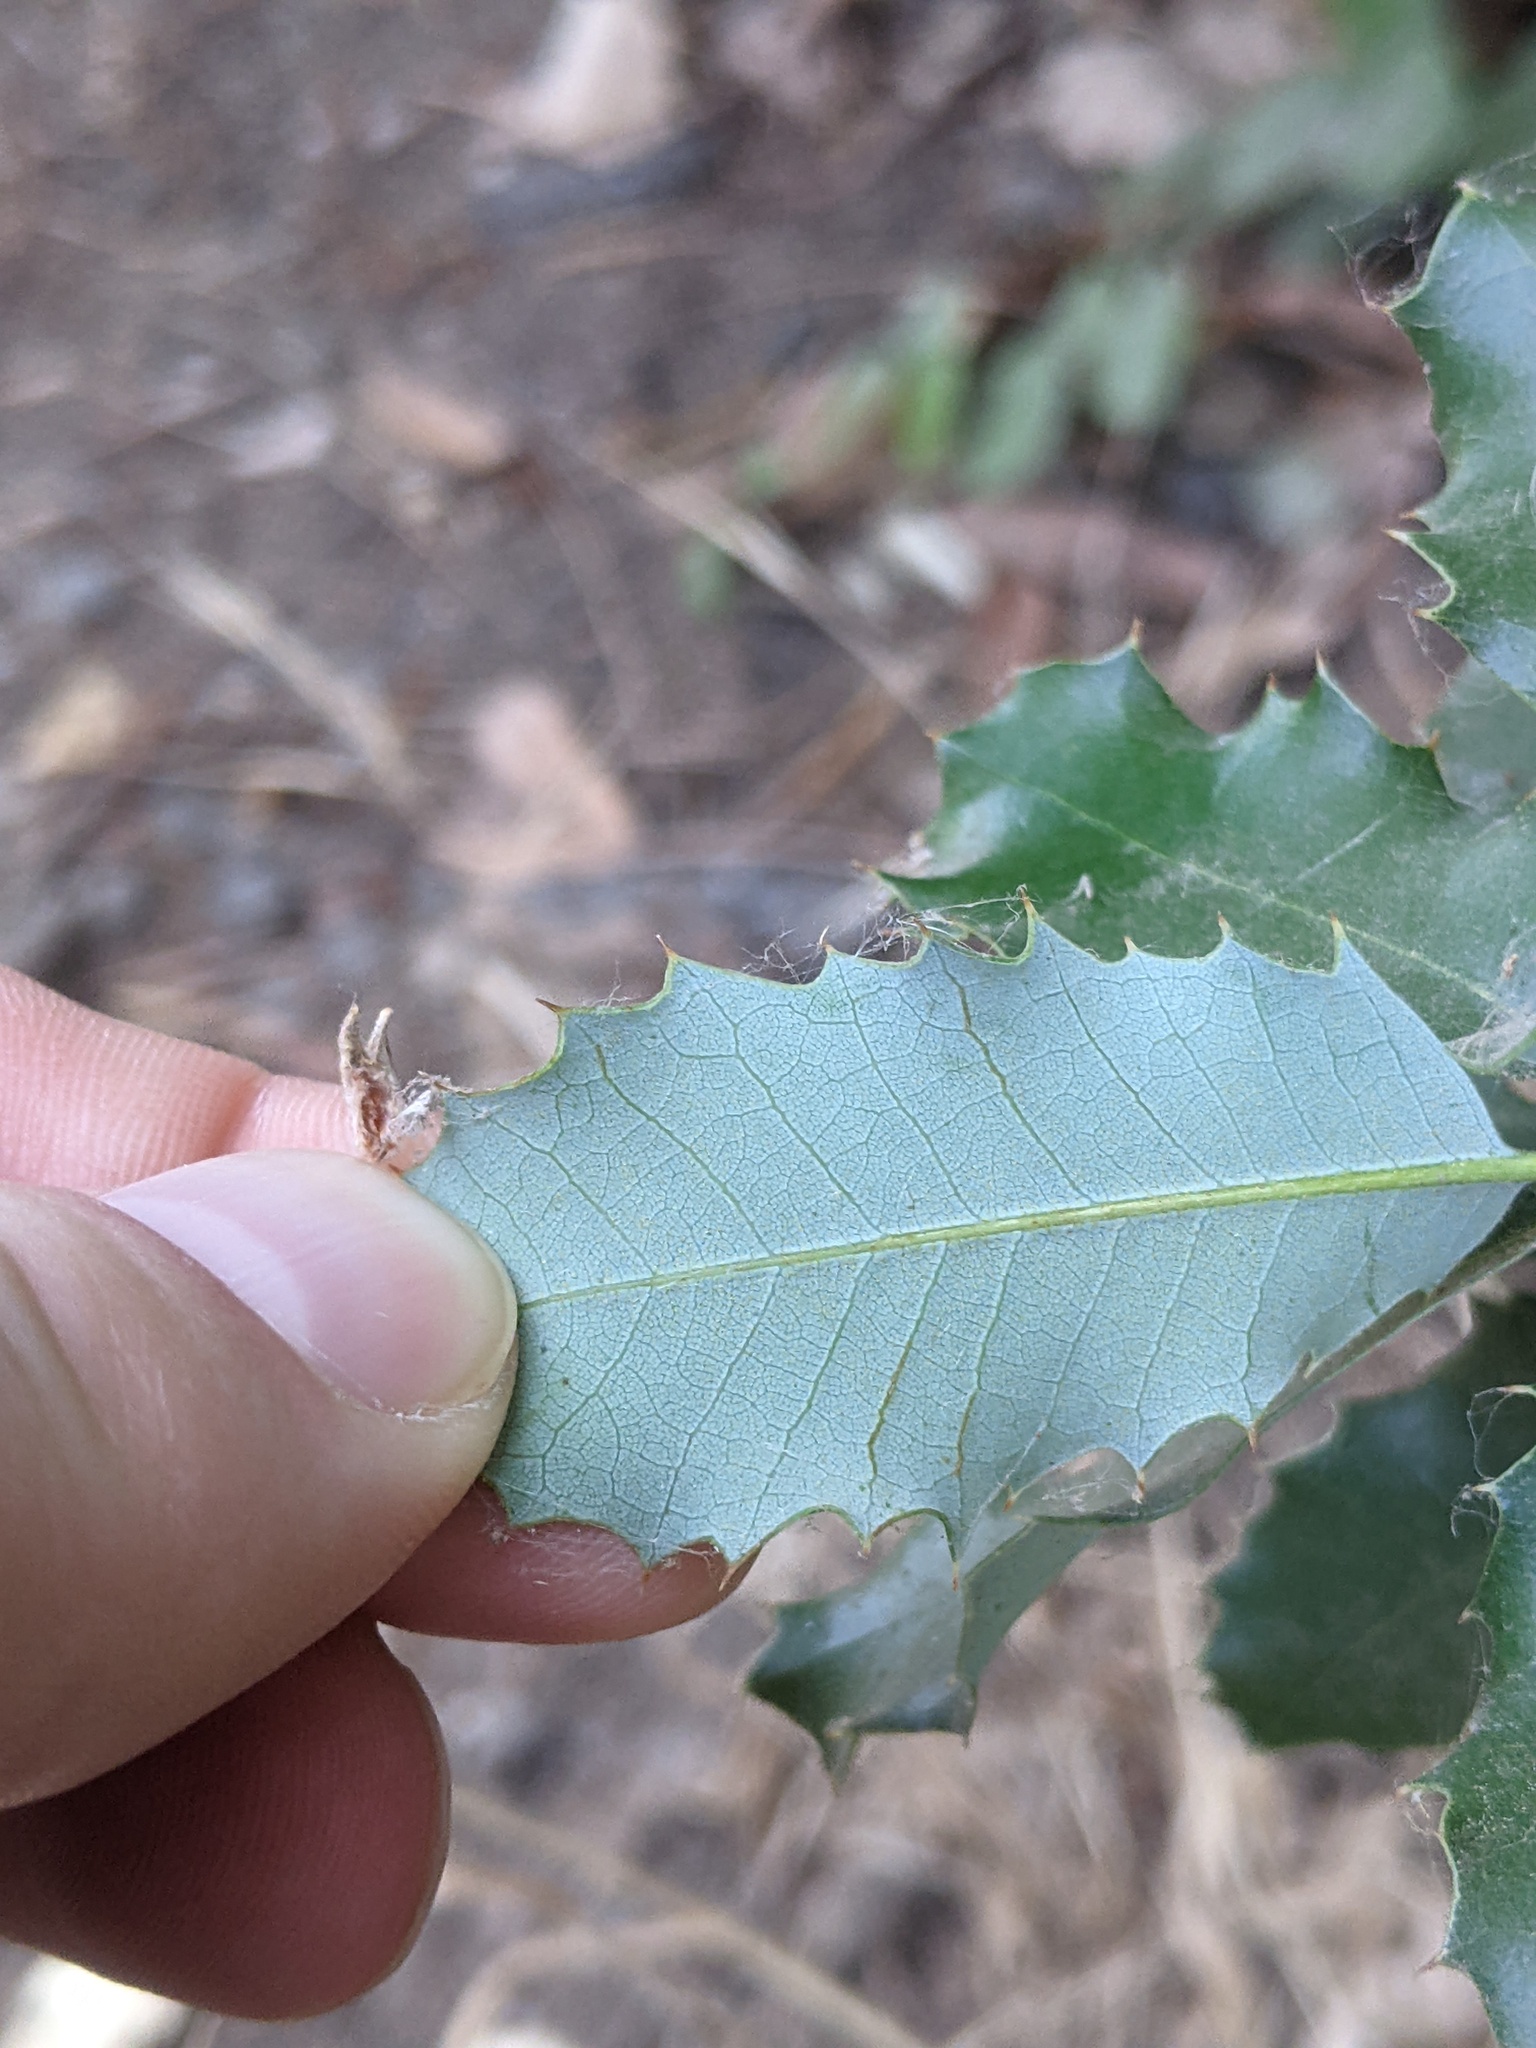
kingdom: Plantae
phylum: Tracheophyta
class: Magnoliopsida
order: Fagales
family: Fagaceae
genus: Quercus
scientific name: Quercus chrysolepis
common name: Canyon live oak
